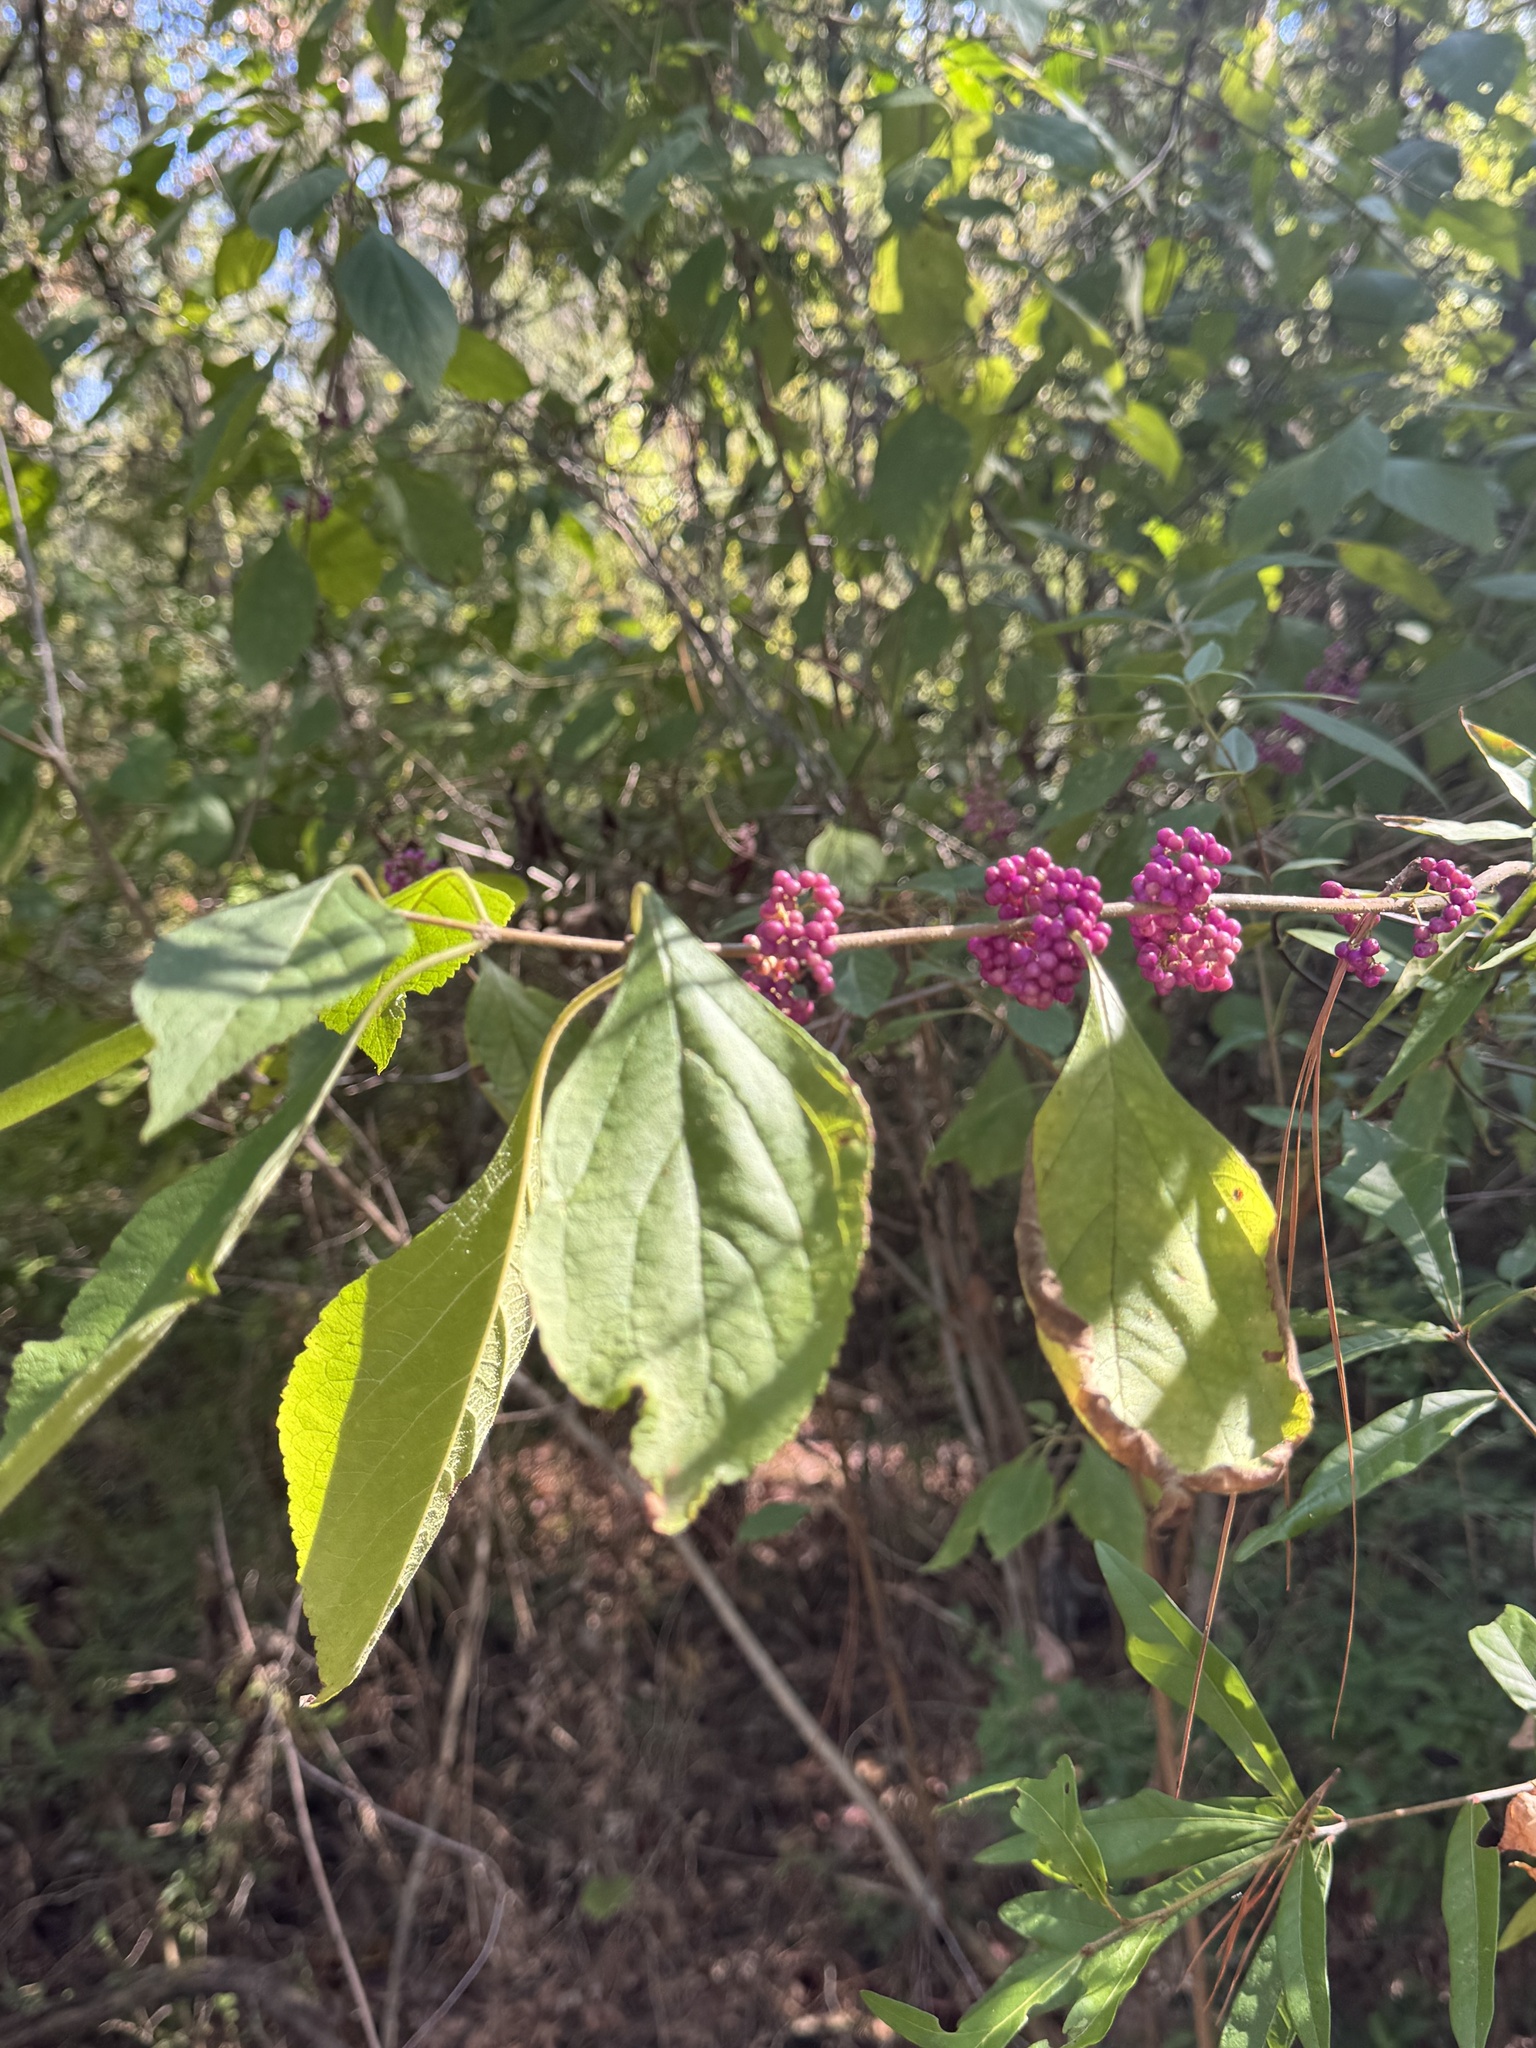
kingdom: Plantae
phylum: Tracheophyta
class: Magnoliopsida
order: Lamiales
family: Lamiaceae
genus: Callicarpa
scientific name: Callicarpa americana
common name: American beautyberry
